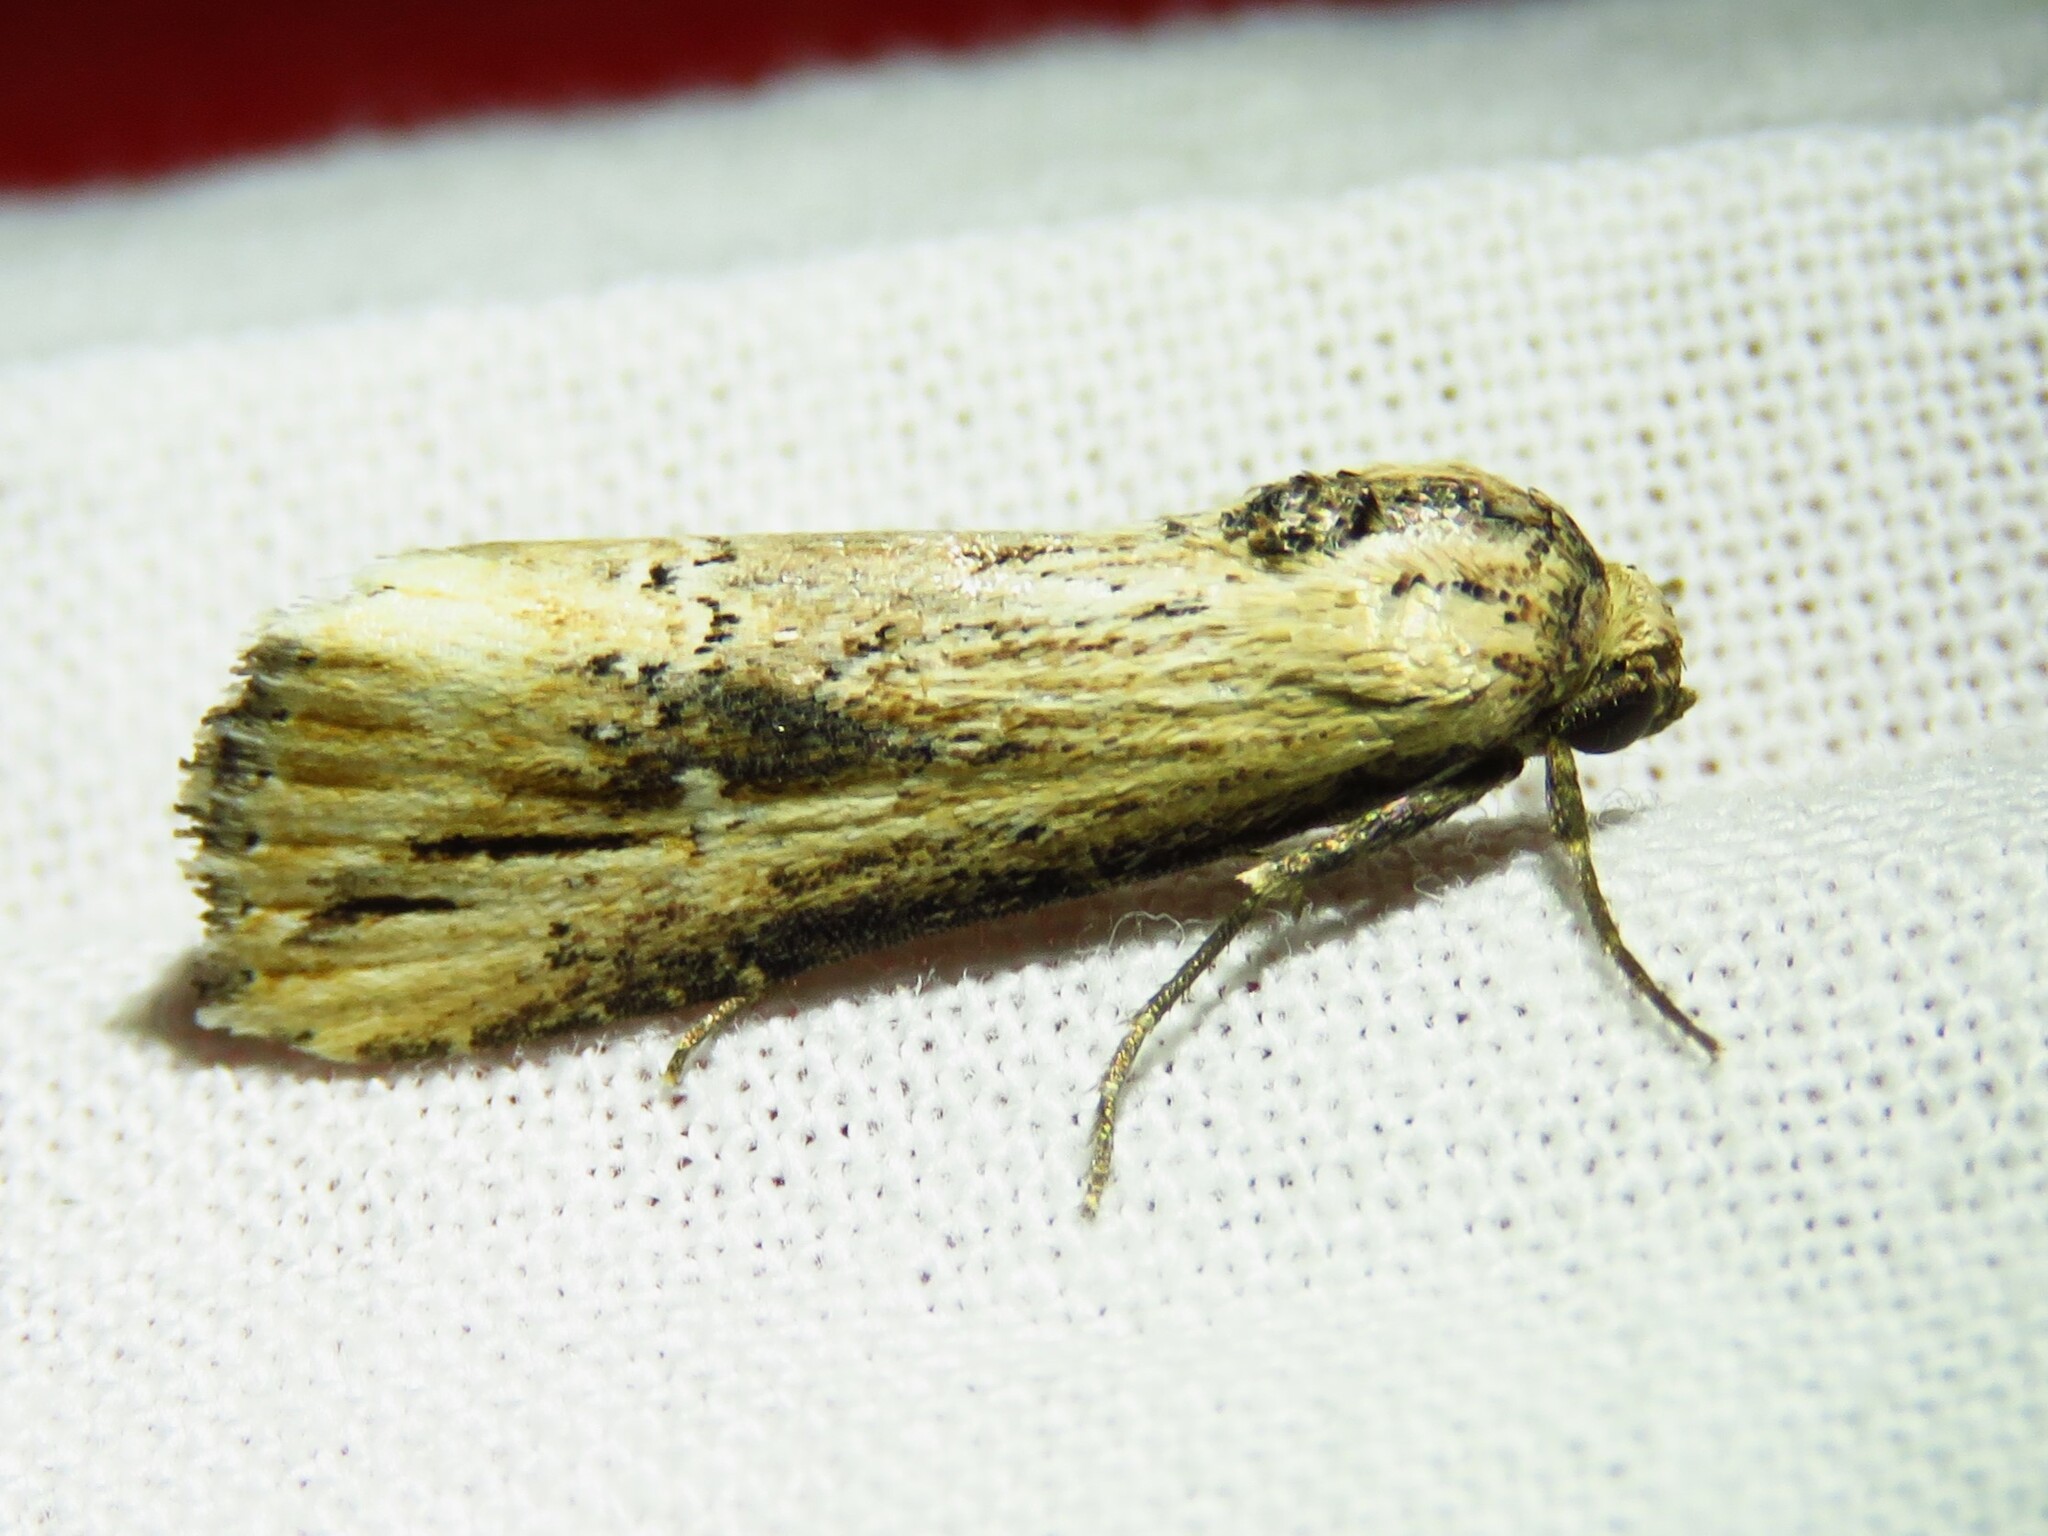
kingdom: Animalia
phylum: Arthropoda
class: Insecta
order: Lepidoptera
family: Noctuidae
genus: Crambodes
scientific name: Crambodes talidiformis
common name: Verbena moth
